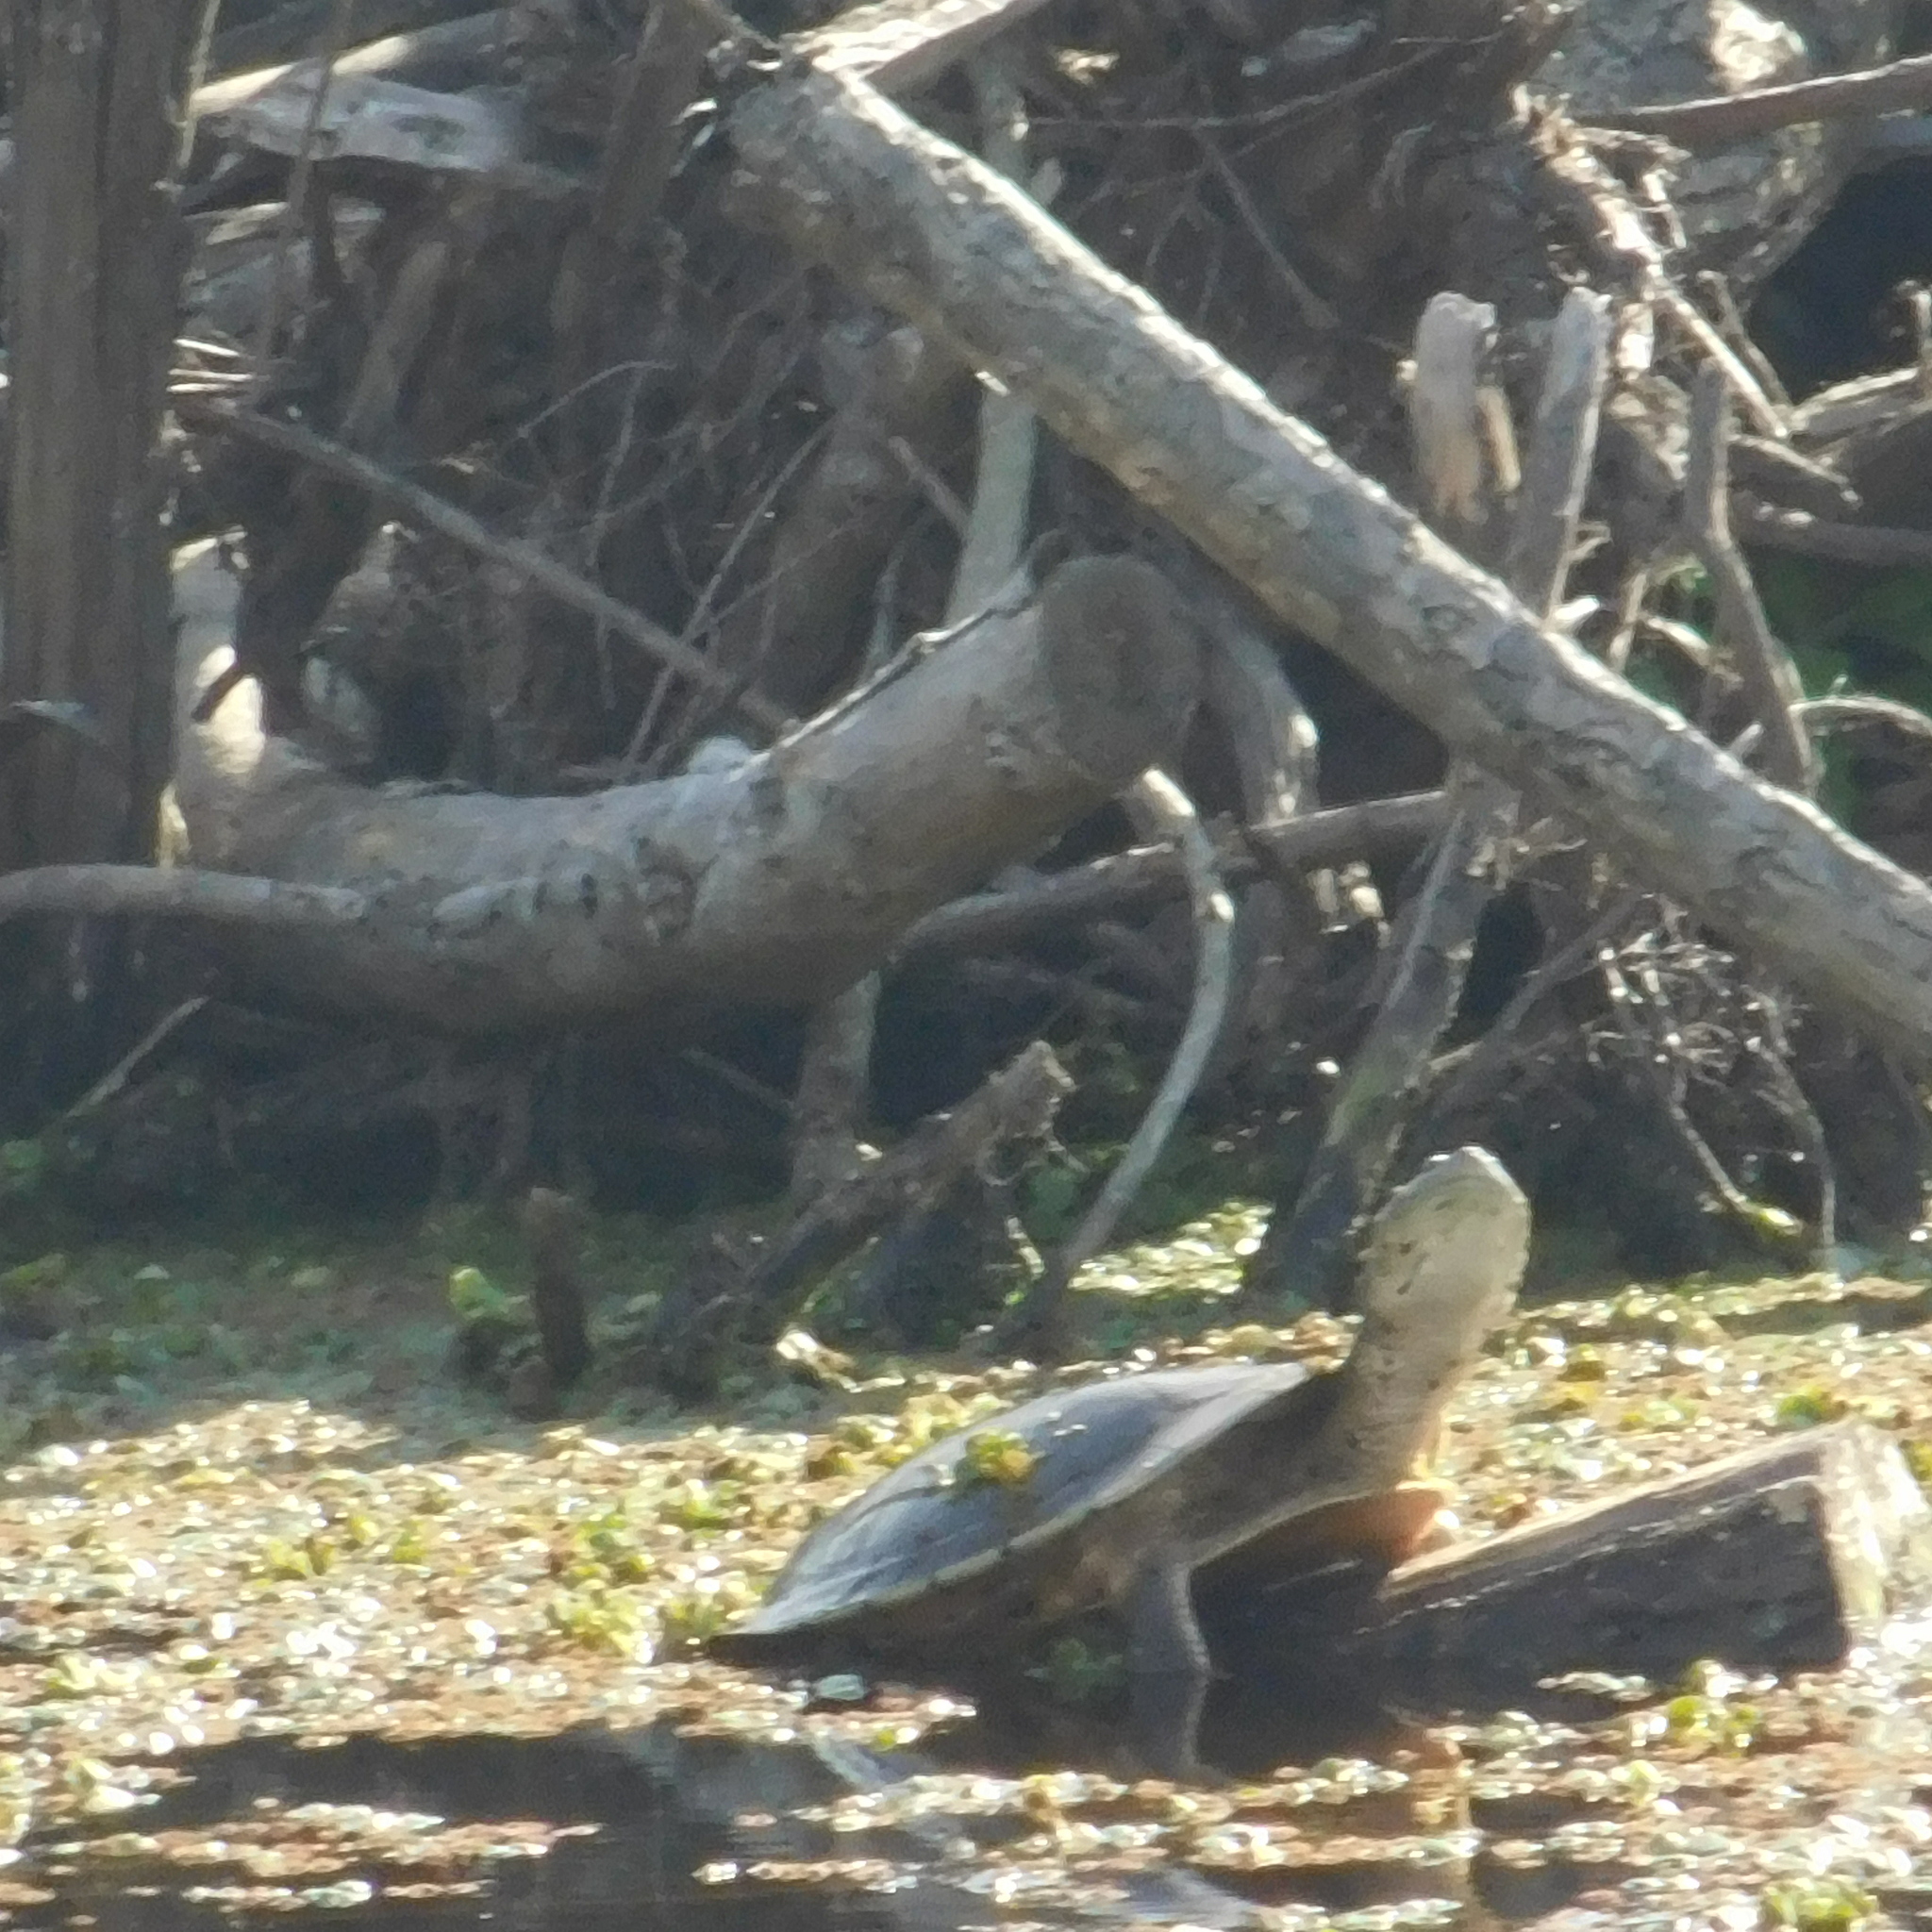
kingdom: Animalia
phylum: Chordata
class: Testudines
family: Chelidae
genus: Phrynops
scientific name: Phrynops hilarii
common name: Side-necked turtle of saint hillaire
